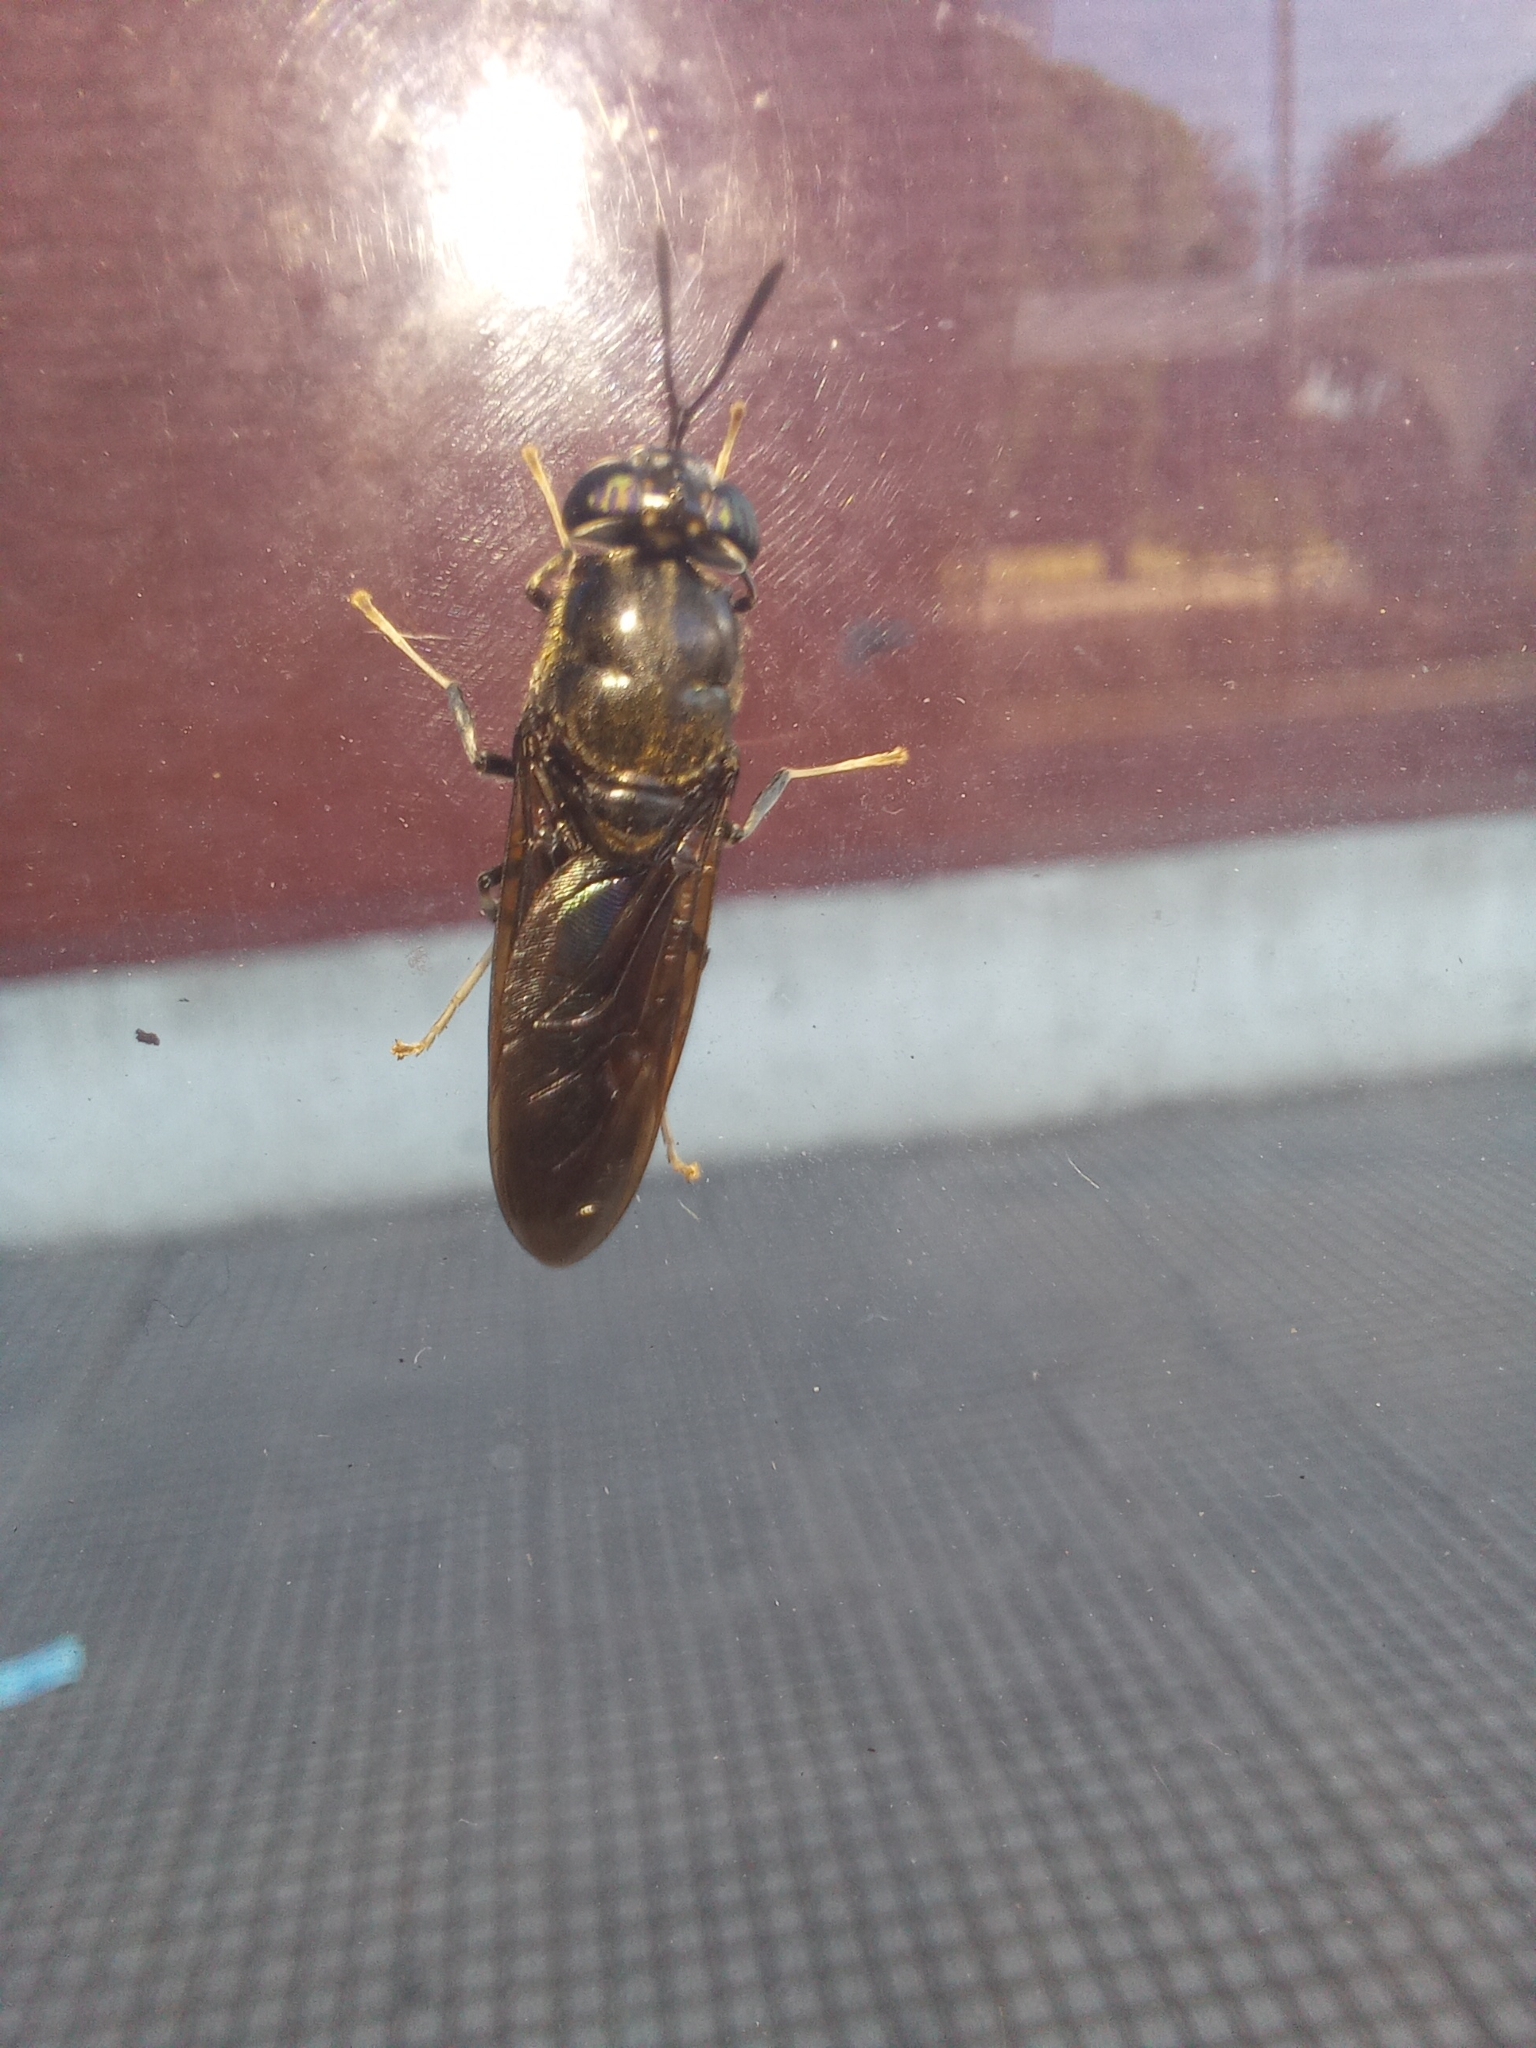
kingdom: Animalia
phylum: Arthropoda
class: Insecta
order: Diptera
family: Stratiomyidae
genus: Hermetia
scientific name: Hermetia illucens
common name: Black soldier fly
